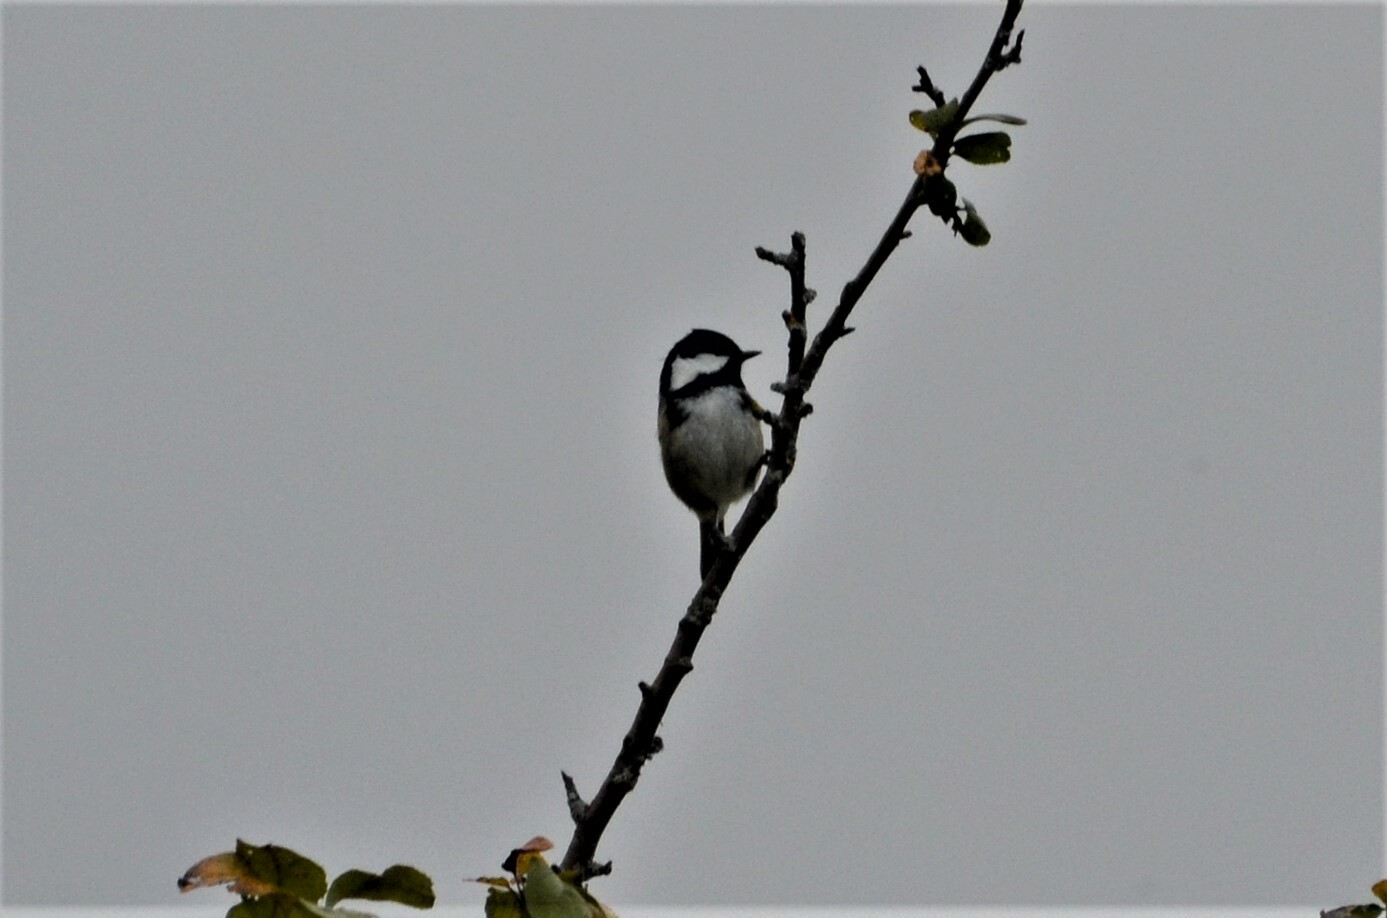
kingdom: Animalia
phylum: Chordata
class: Aves
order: Passeriformes
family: Paridae
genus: Periparus
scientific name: Periparus ater
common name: Coal tit
